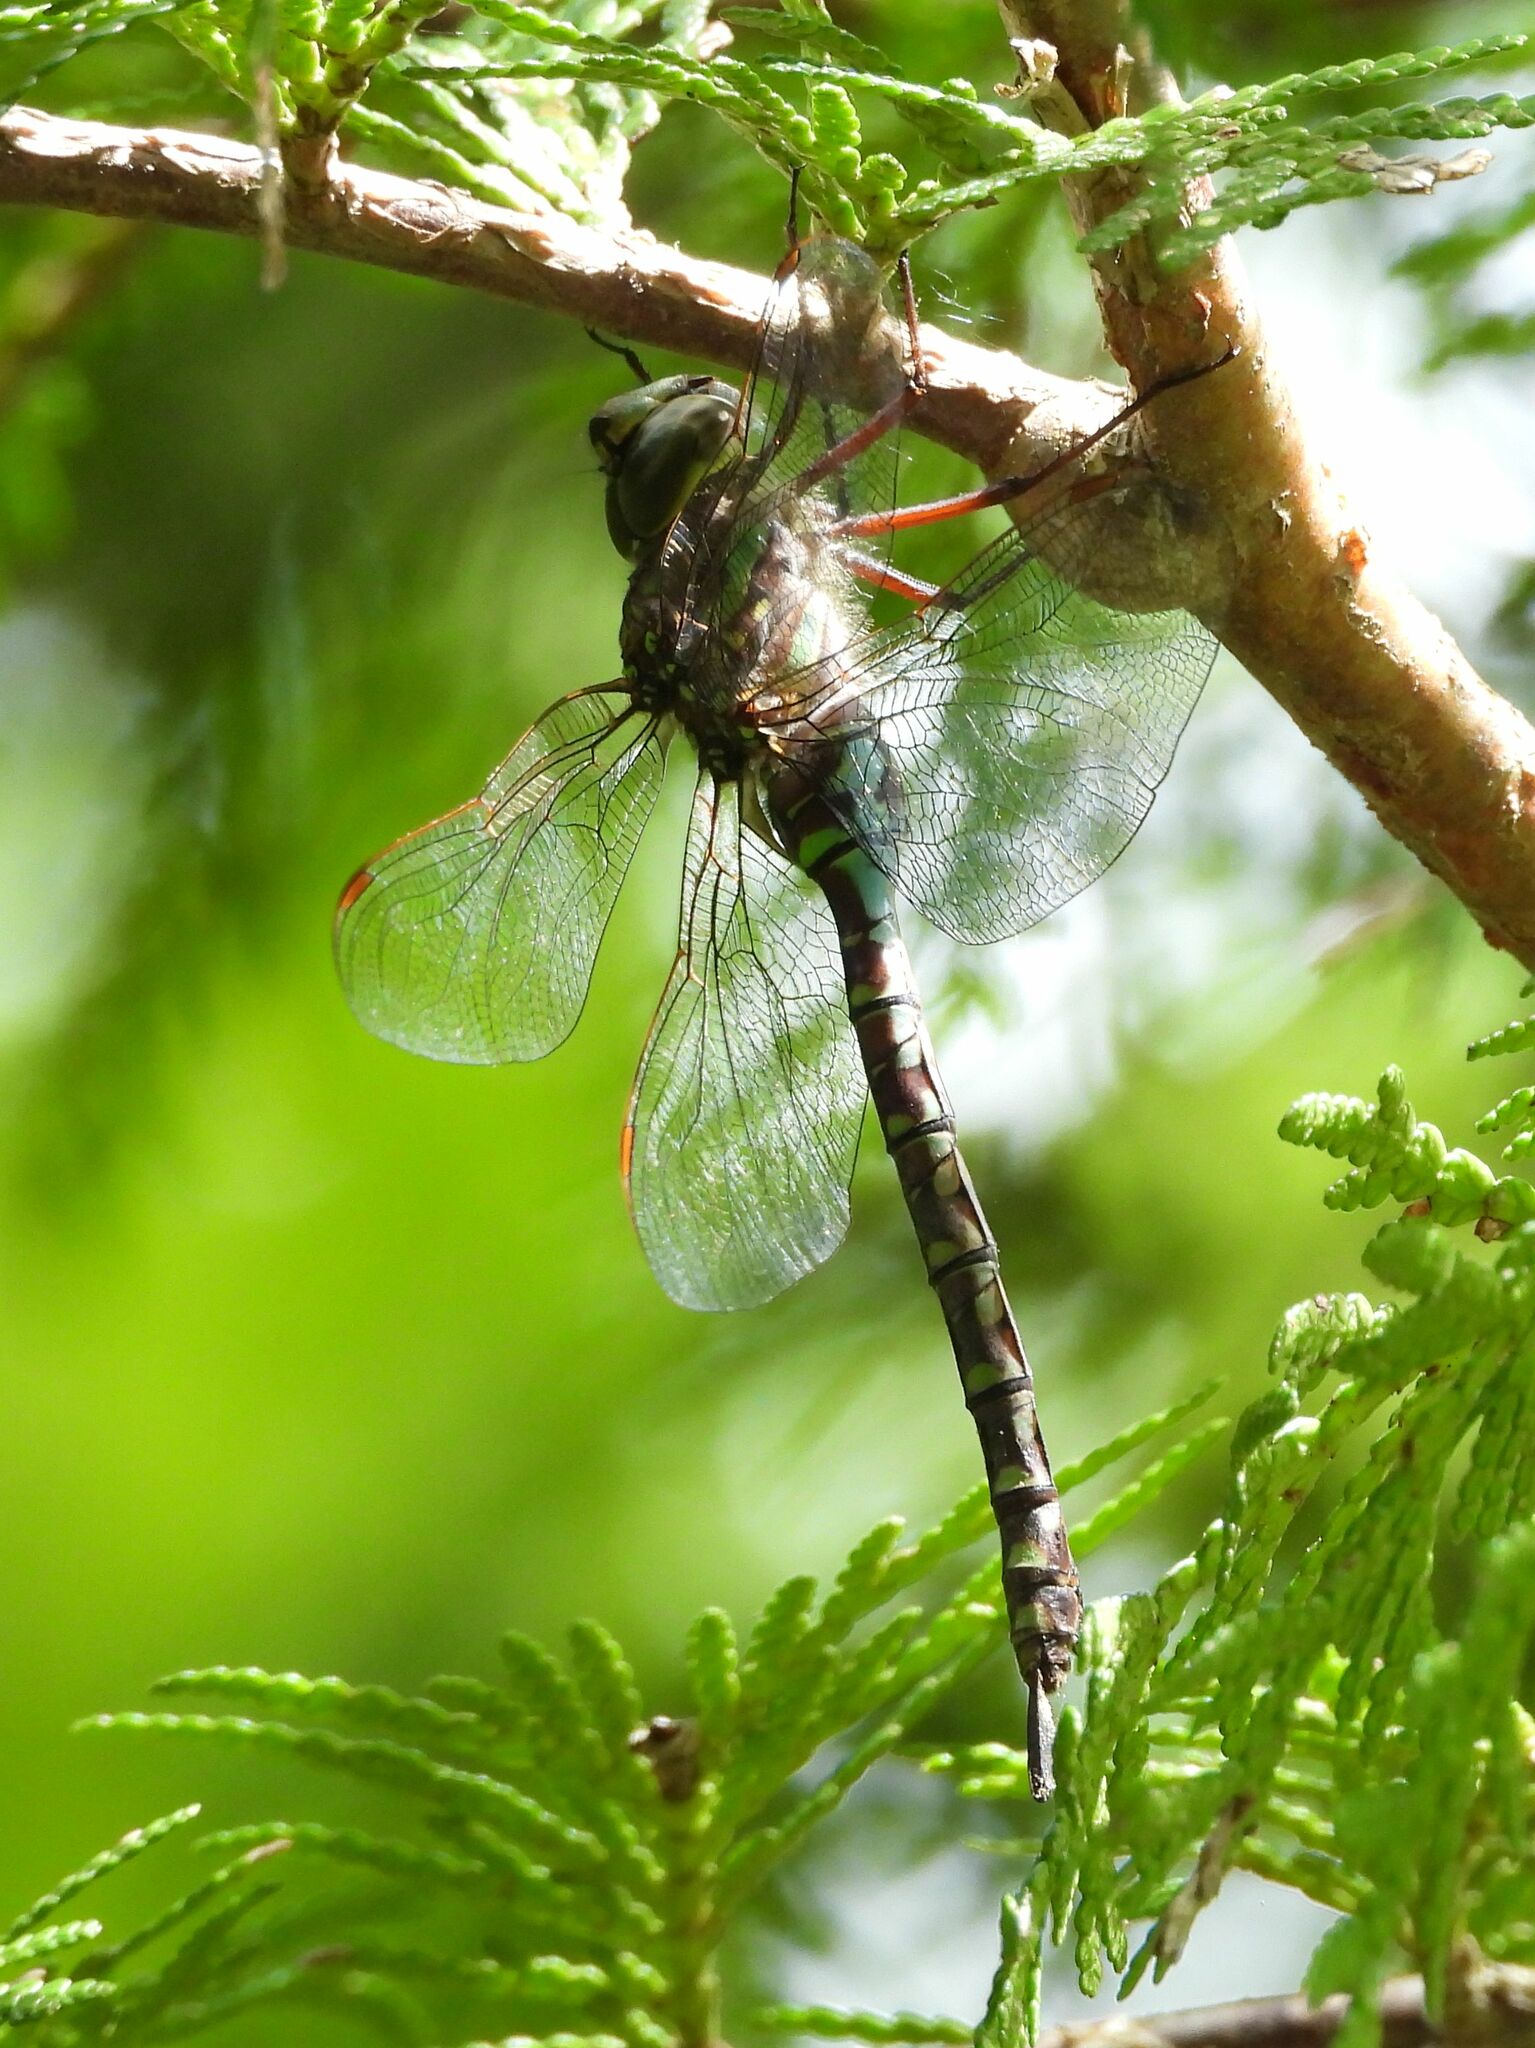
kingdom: Animalia
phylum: Arthropoda
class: Insecta
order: Odonata
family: Aeshnidae
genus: Aeshna
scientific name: Aeshna canadensis
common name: Canada darner
